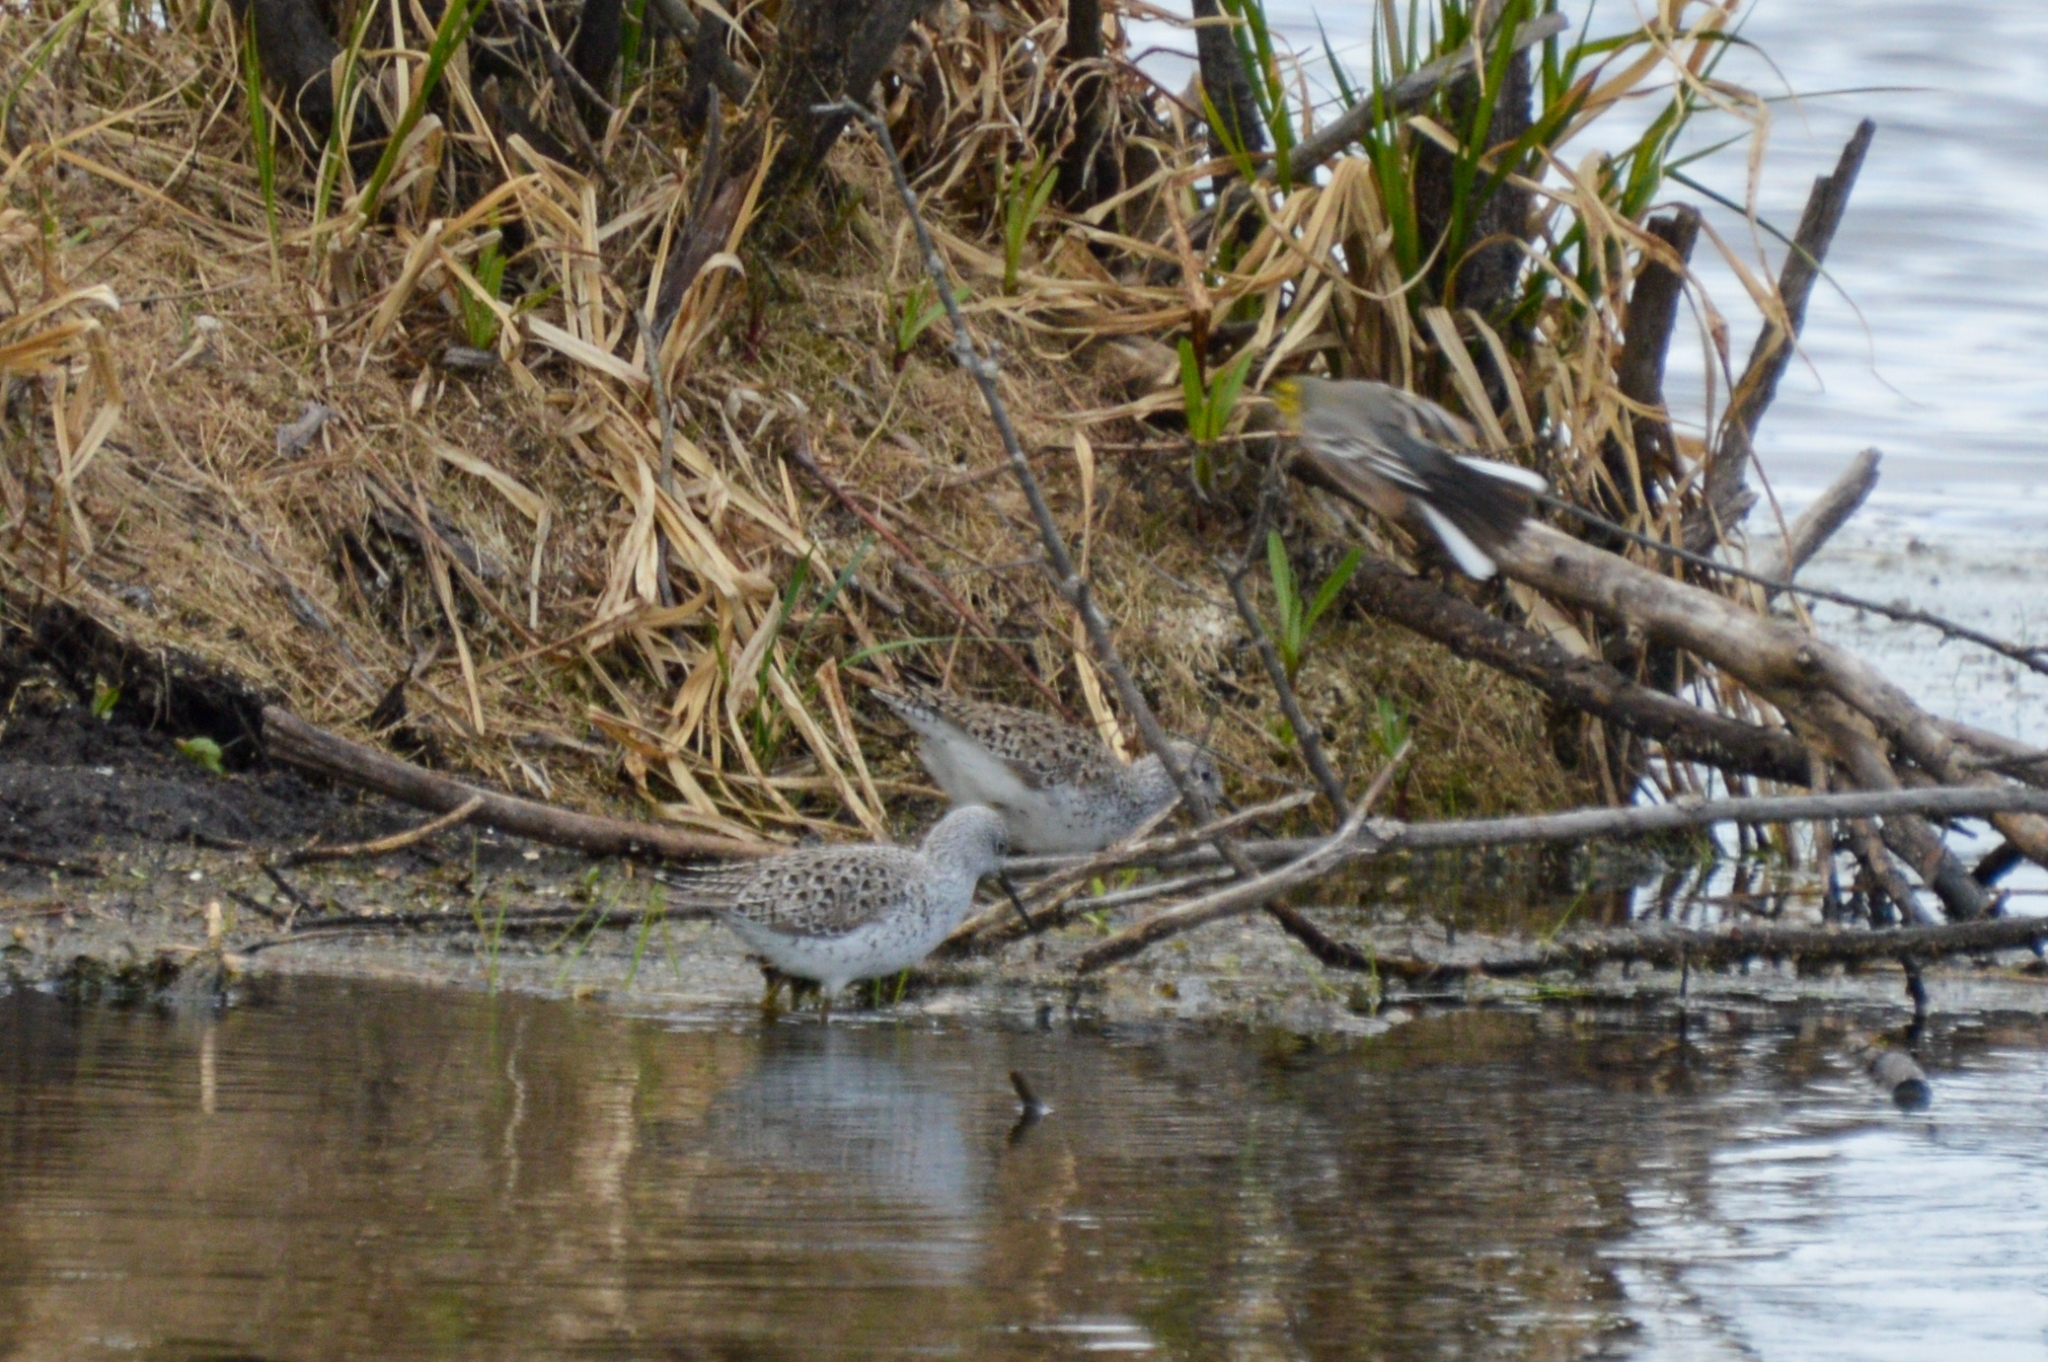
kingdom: Animalia
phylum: Chordata
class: Aves
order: Charadriiformes
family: Scolopacidae
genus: Tringa
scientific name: Tringa stagnatilis
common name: Marsh sandpiper
